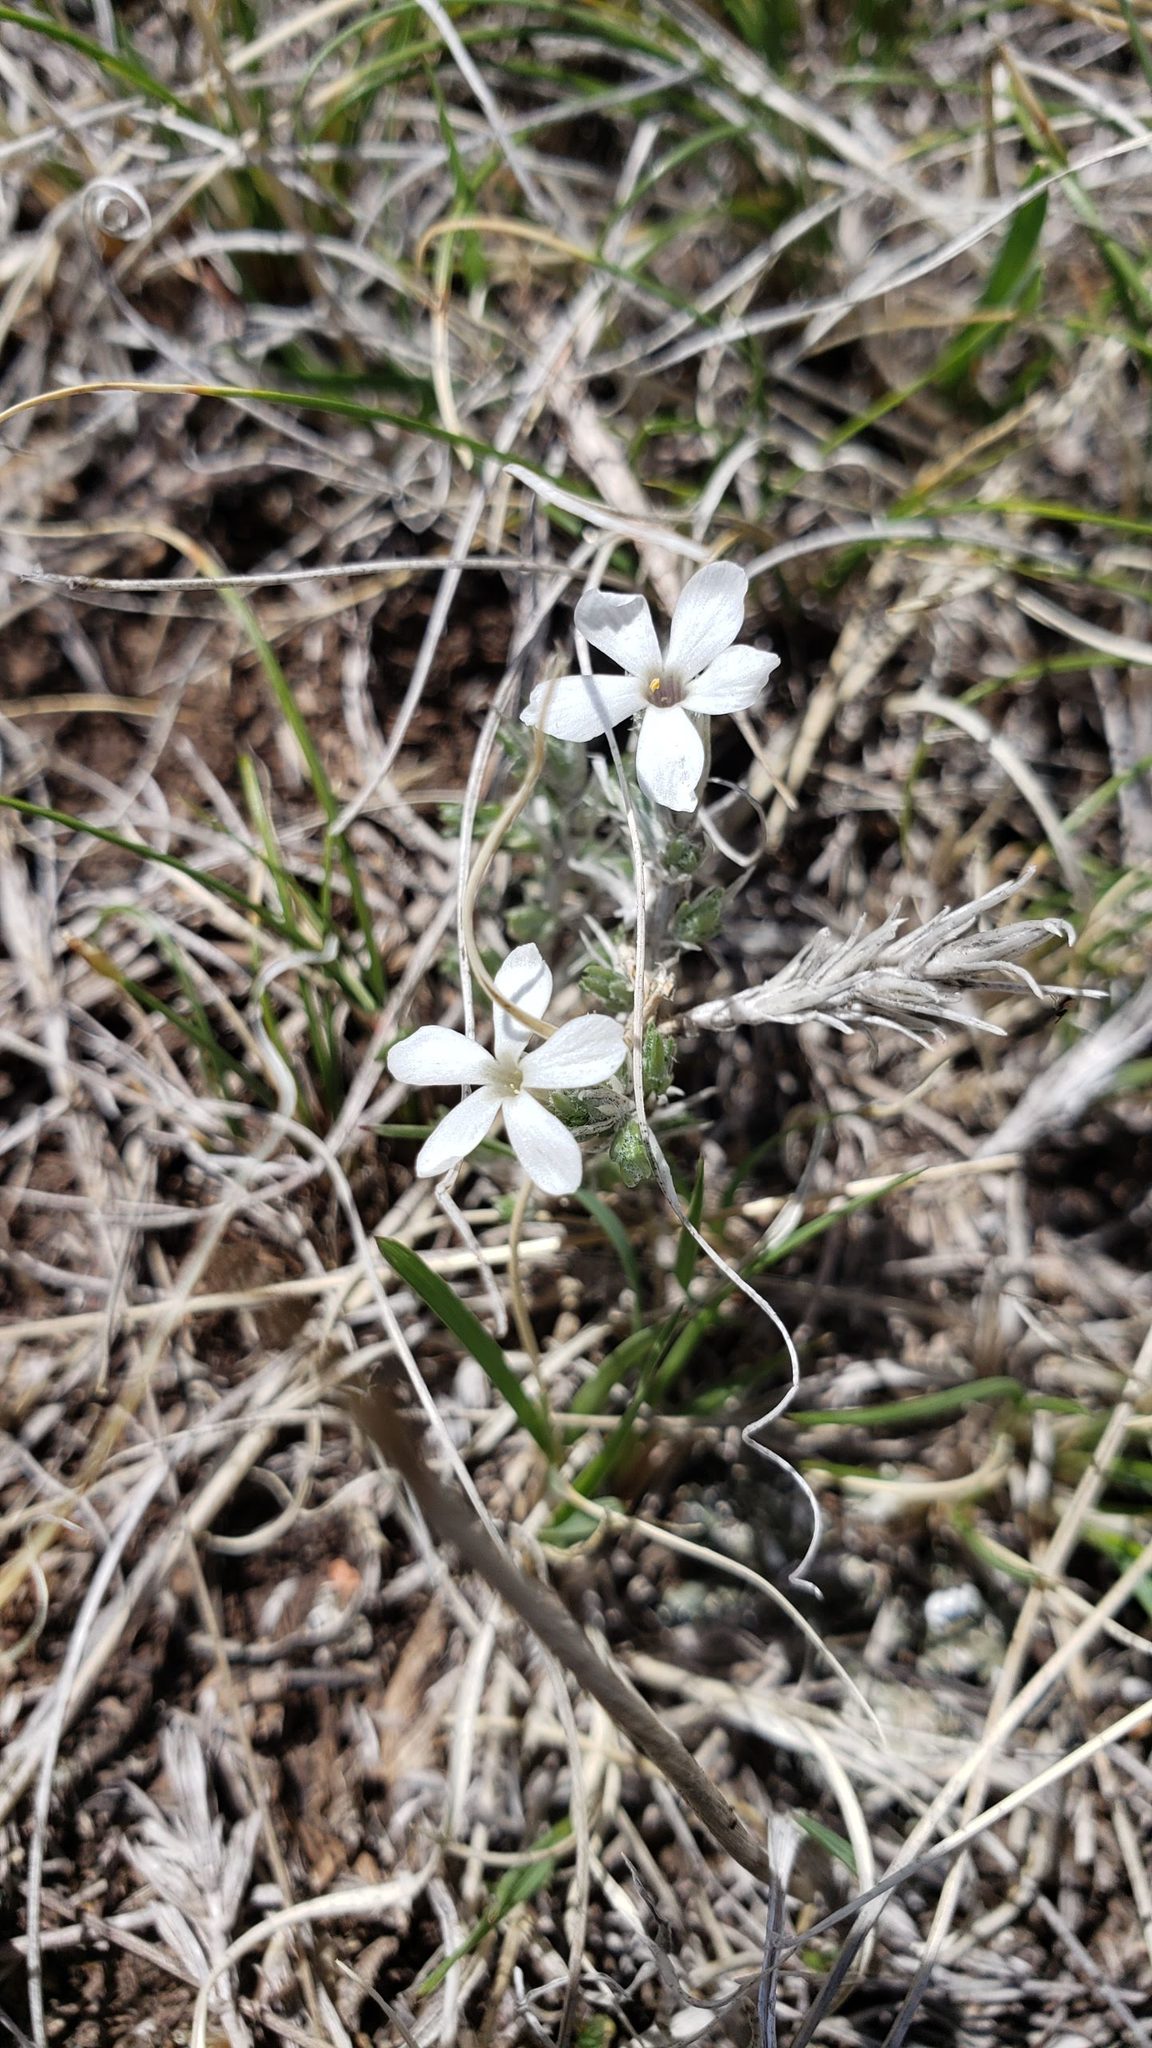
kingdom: Plantae
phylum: Tracheophyta
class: Magnoliopsida
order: Ericales
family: Polemoniaceae
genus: Phlox
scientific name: Phlox hoodii
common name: Moss phlox
